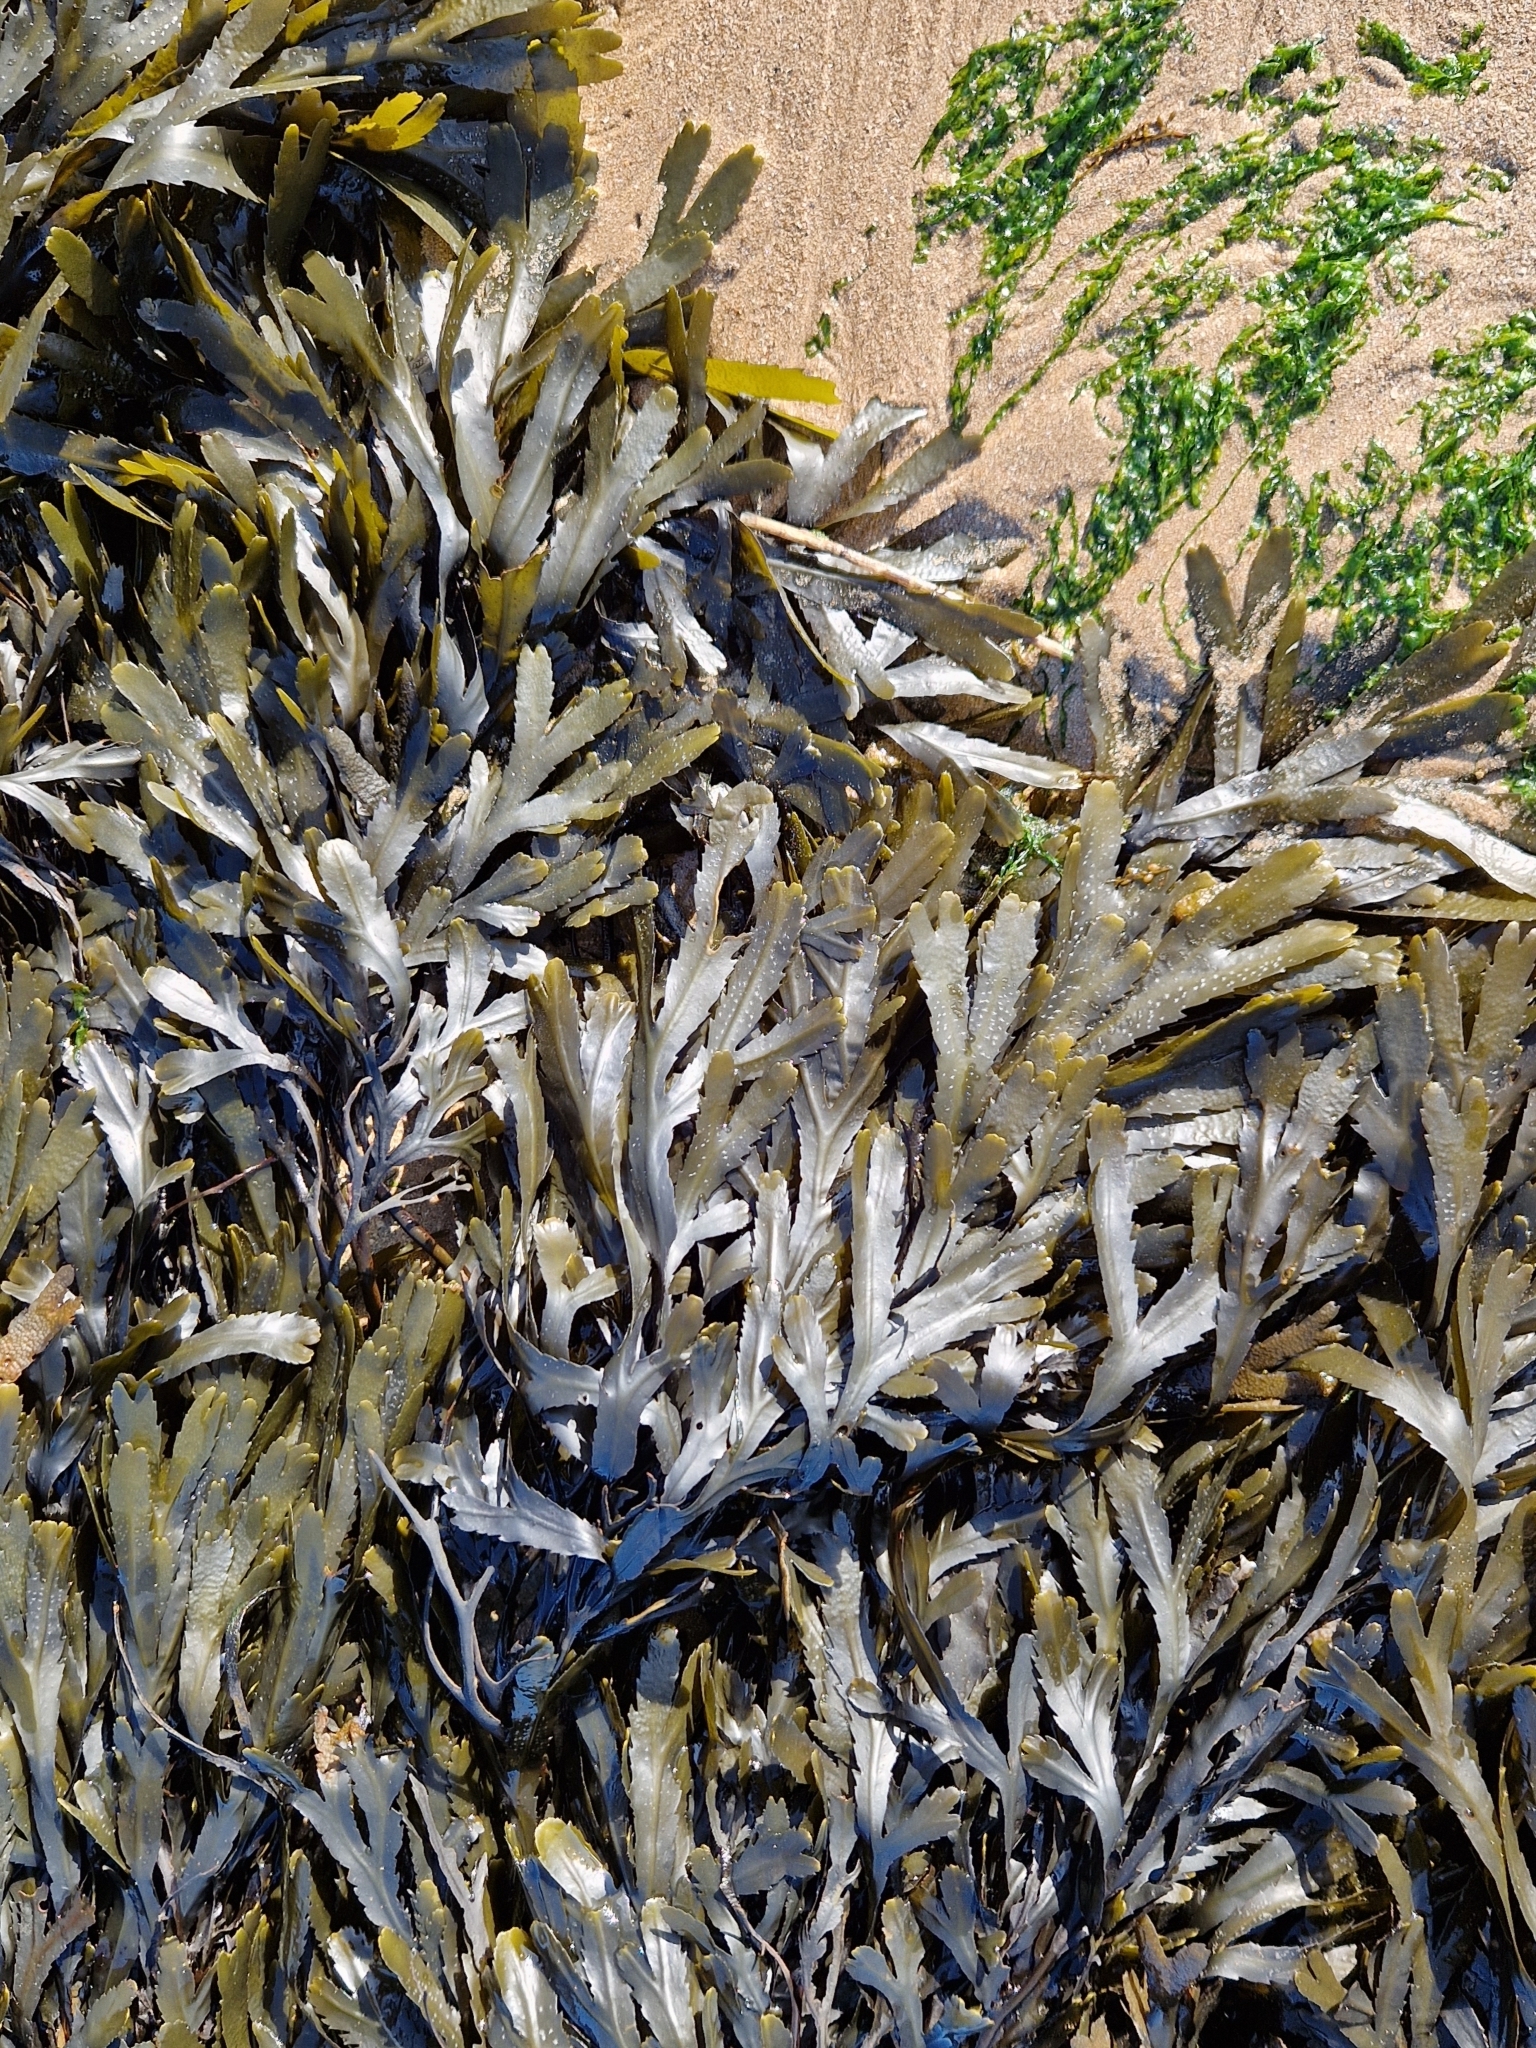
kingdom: Chromista
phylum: Ochrophyta
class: Phaeophyceae
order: Fucales
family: Fucaceae
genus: Fucus
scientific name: Fucus serratus
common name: Toothed wrack
